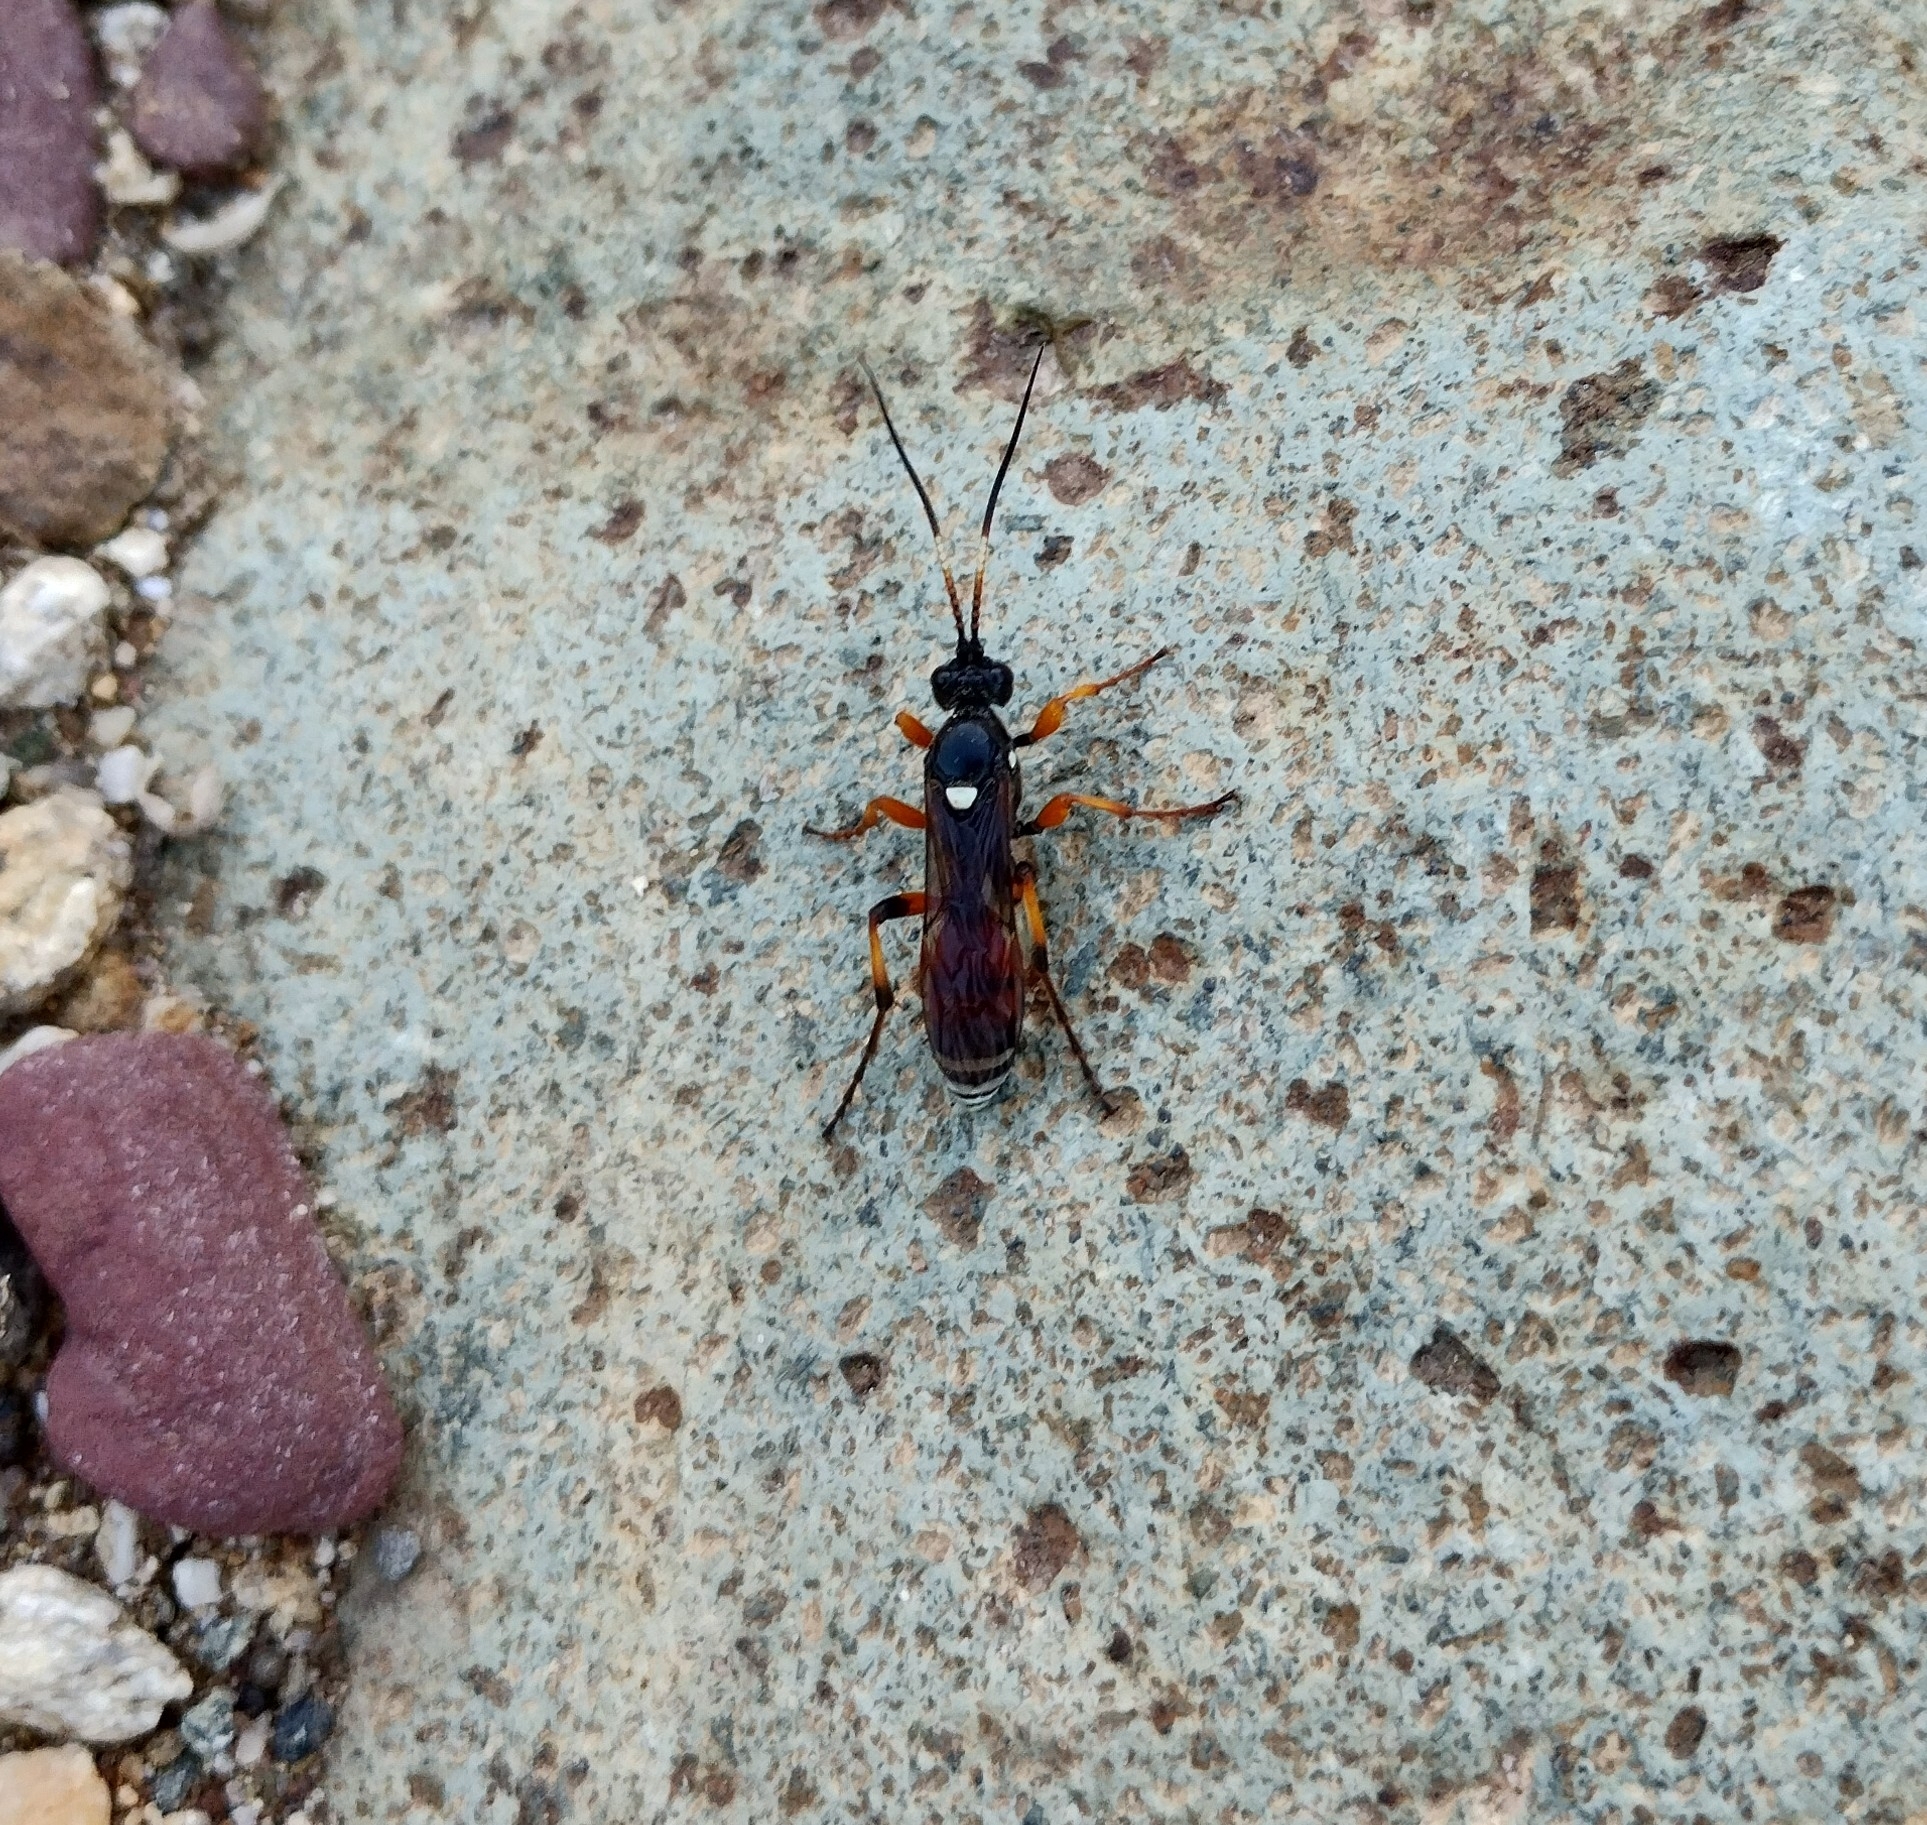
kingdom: Animalia
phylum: Arthropoda
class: Insecta
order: Hymenoptera
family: Ichneumonidae
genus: Eutanyacra
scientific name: Eutanyacra picta
